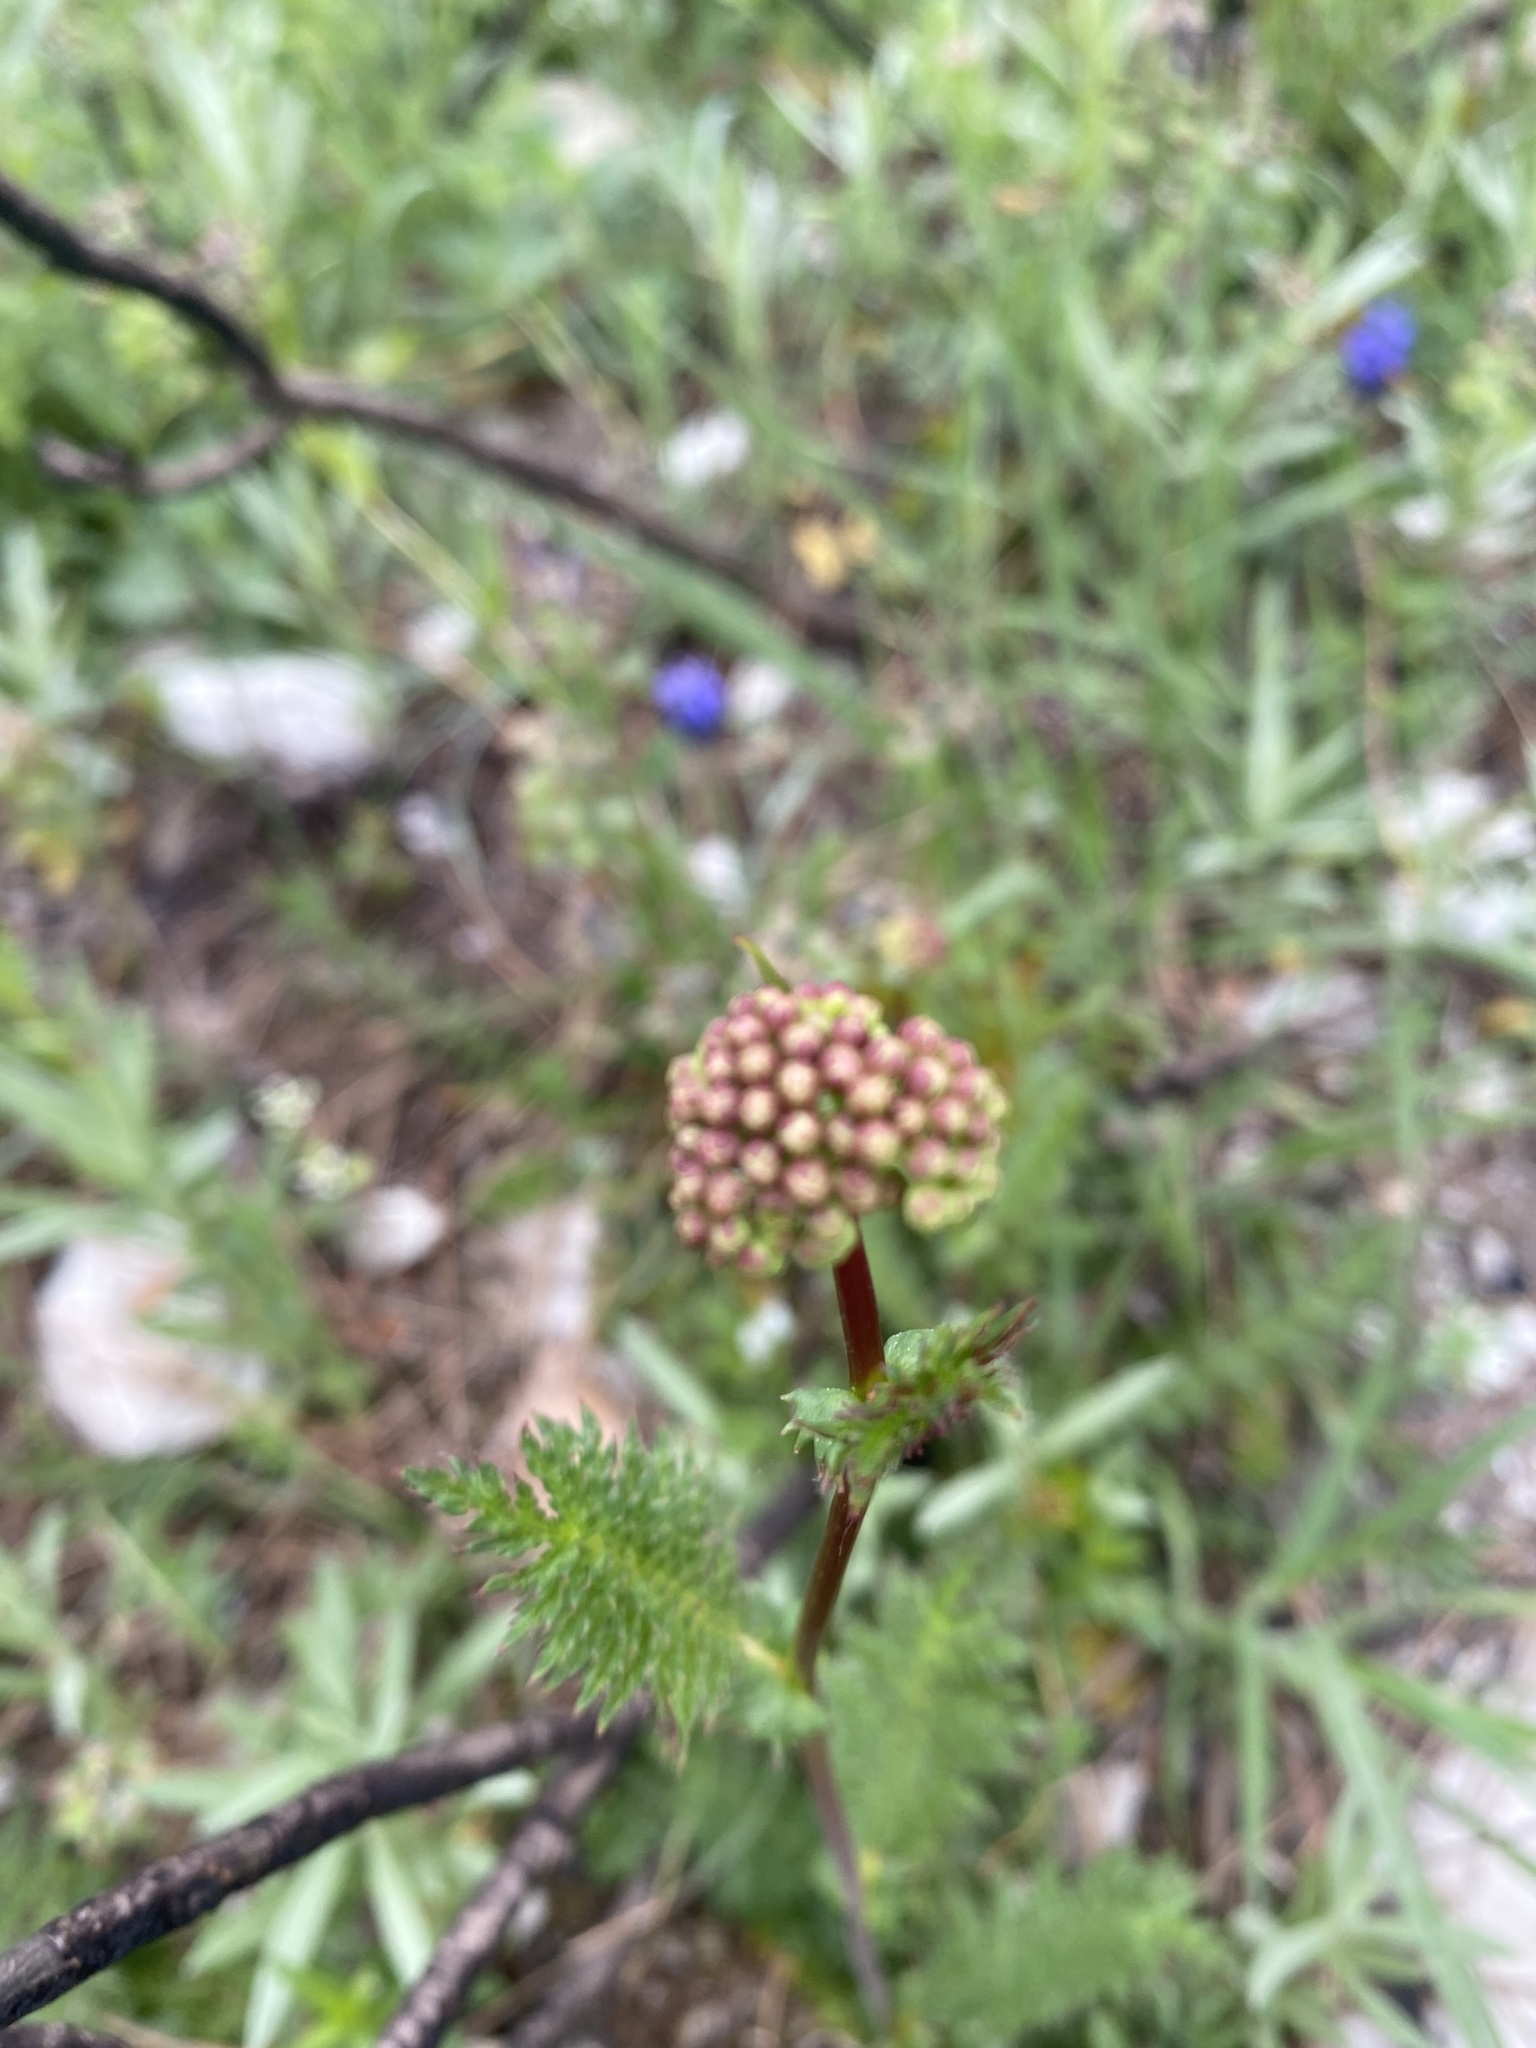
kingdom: Plantae
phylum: Tracheophyta
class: Magnoliopsida
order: Rosales
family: Rosaceae
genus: Filipendula
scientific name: Filipendula vulgaris
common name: Dropwort
